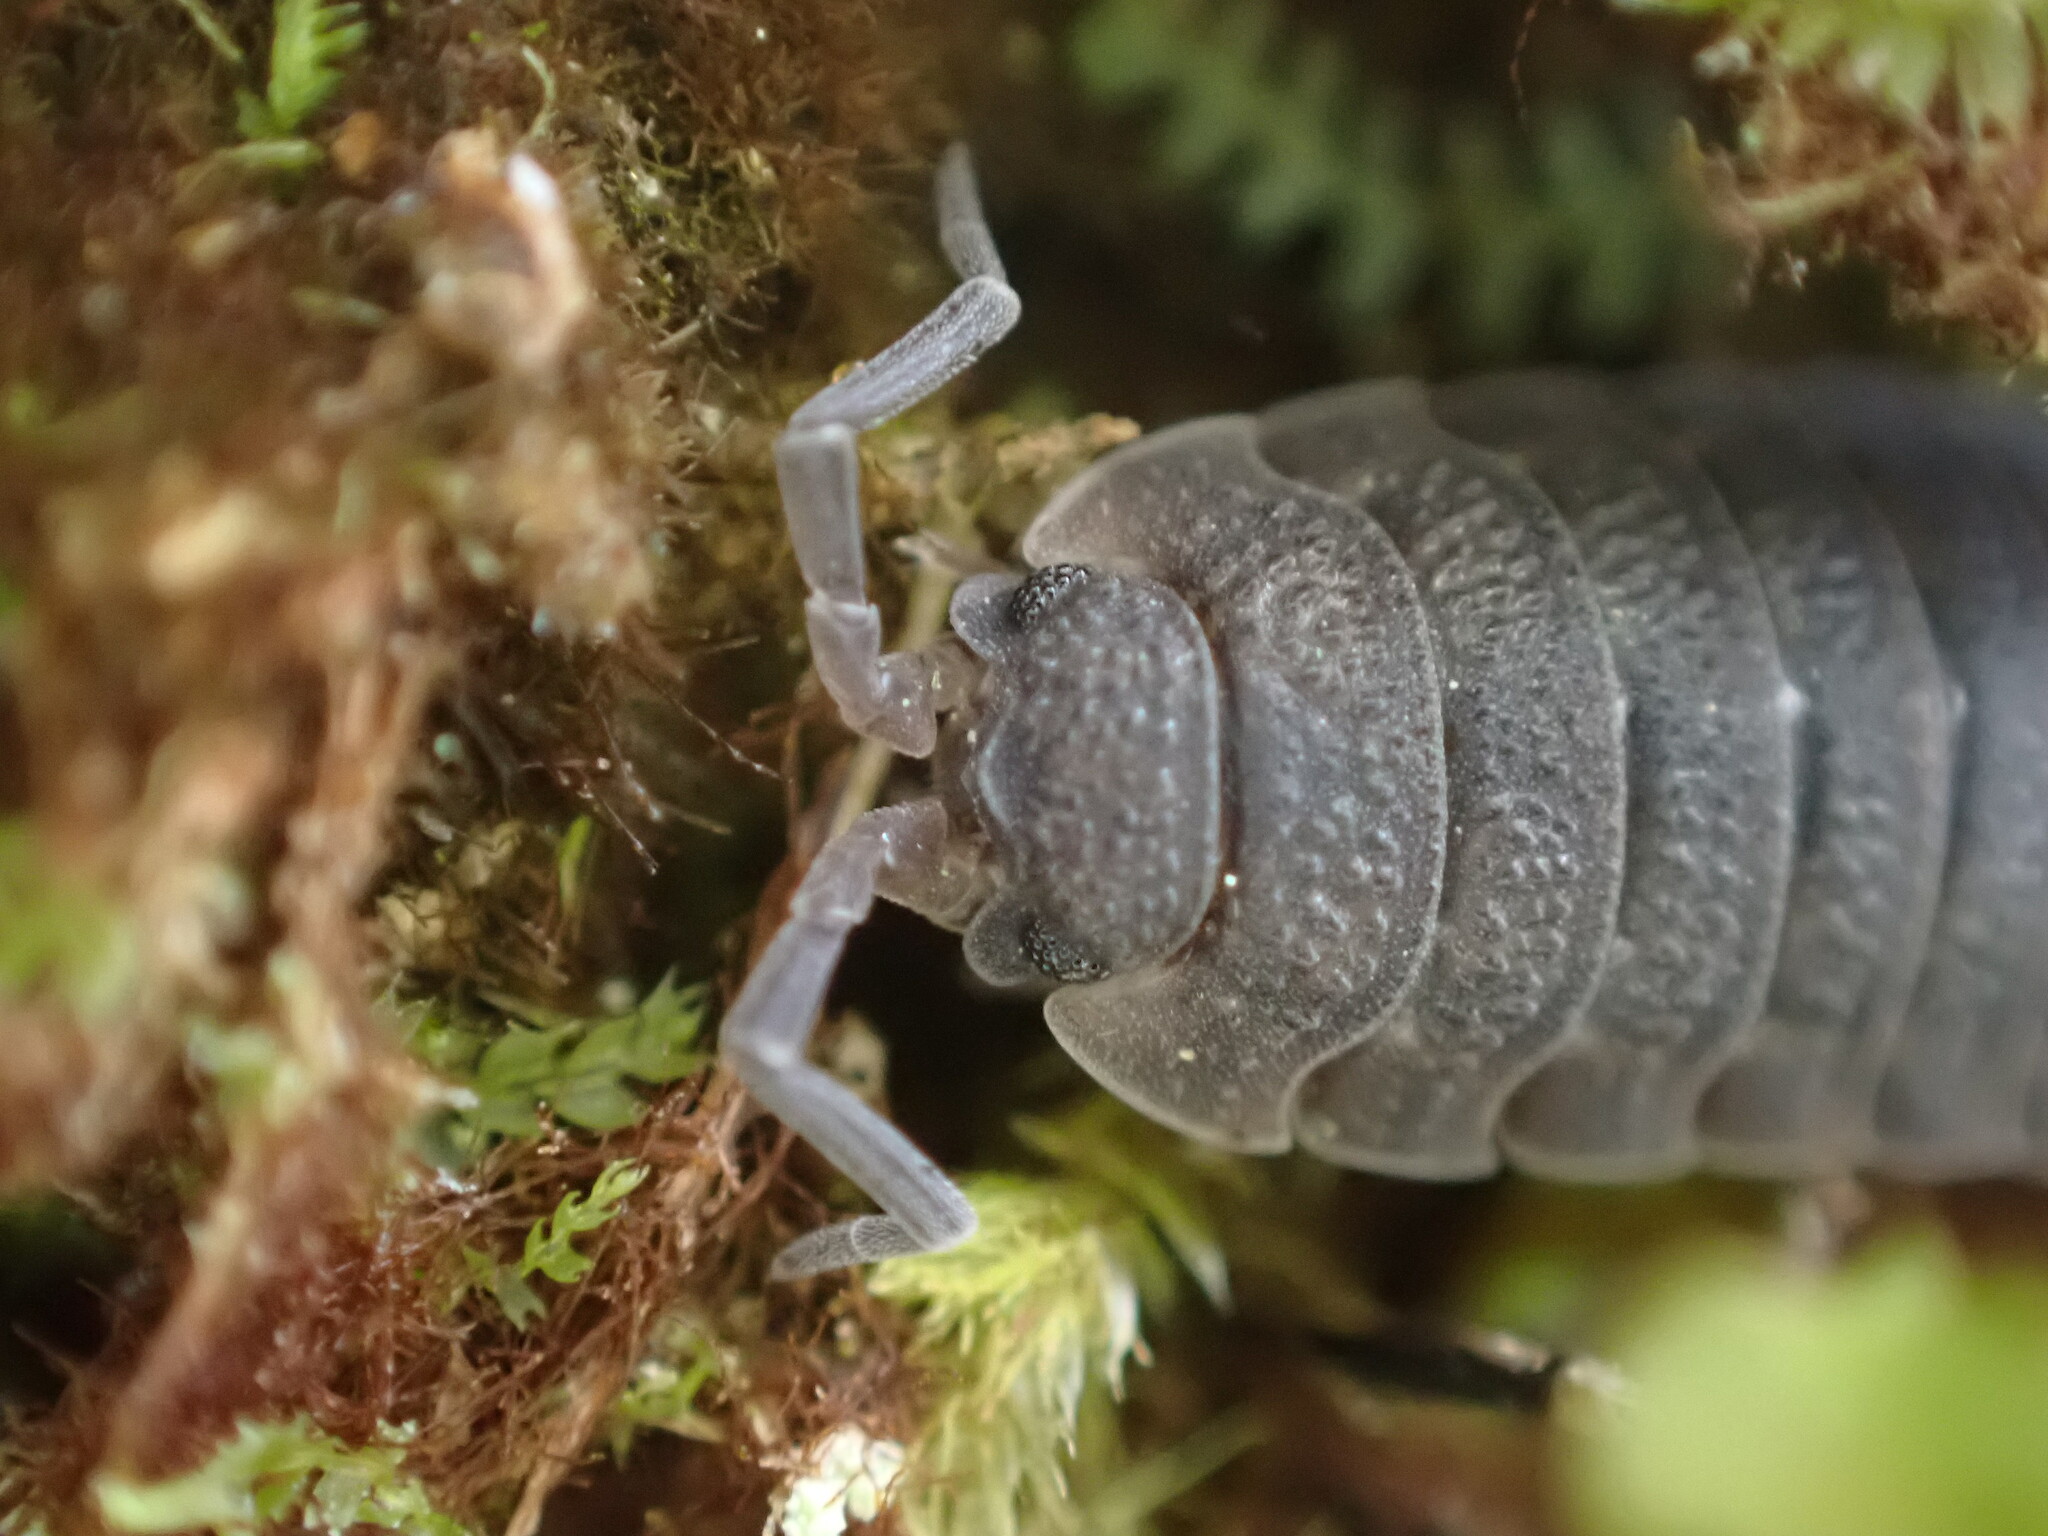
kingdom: Animalia
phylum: Arthropoda
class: Malacostraca
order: Isopoda
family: Porcellionidae
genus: Porcellio
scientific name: Porcellio scaber
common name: Common rough woodlouse
